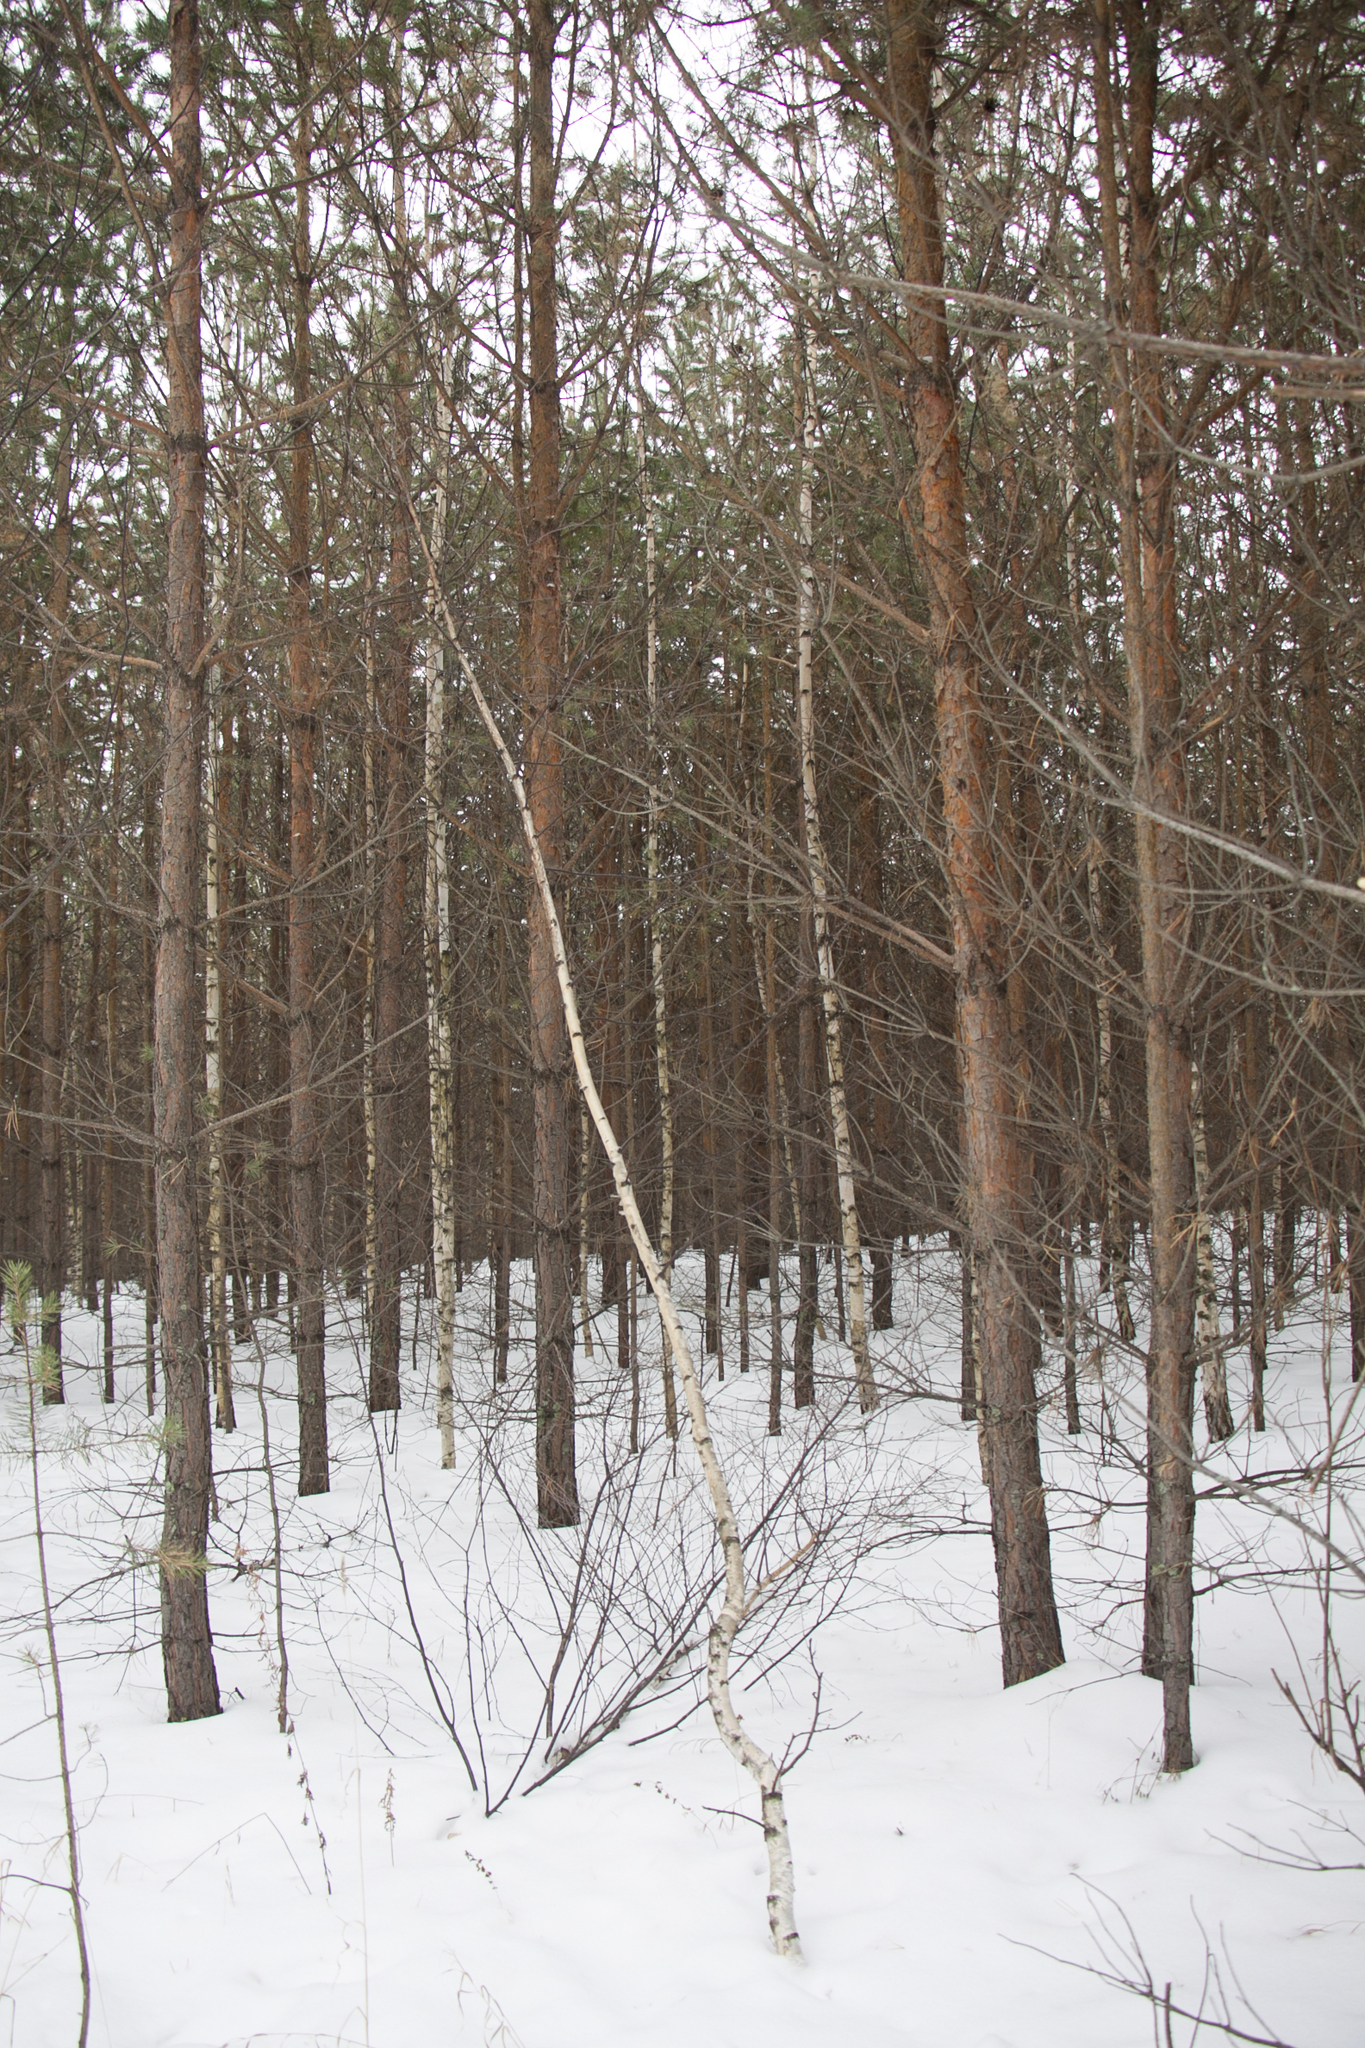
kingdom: Plantae
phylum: Tracheophyta
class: Pinopsida
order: Pinales
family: Pinaceae
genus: Pinus
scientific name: Pinus sylvestris
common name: Scots pine
